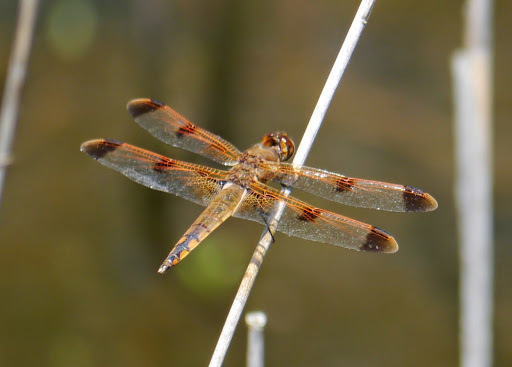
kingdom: Animalia
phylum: Arthropoda
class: Insecta
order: Odonata
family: Libellulidae
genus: Libellula
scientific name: Libellula semifasciata
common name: Painted skimmer
